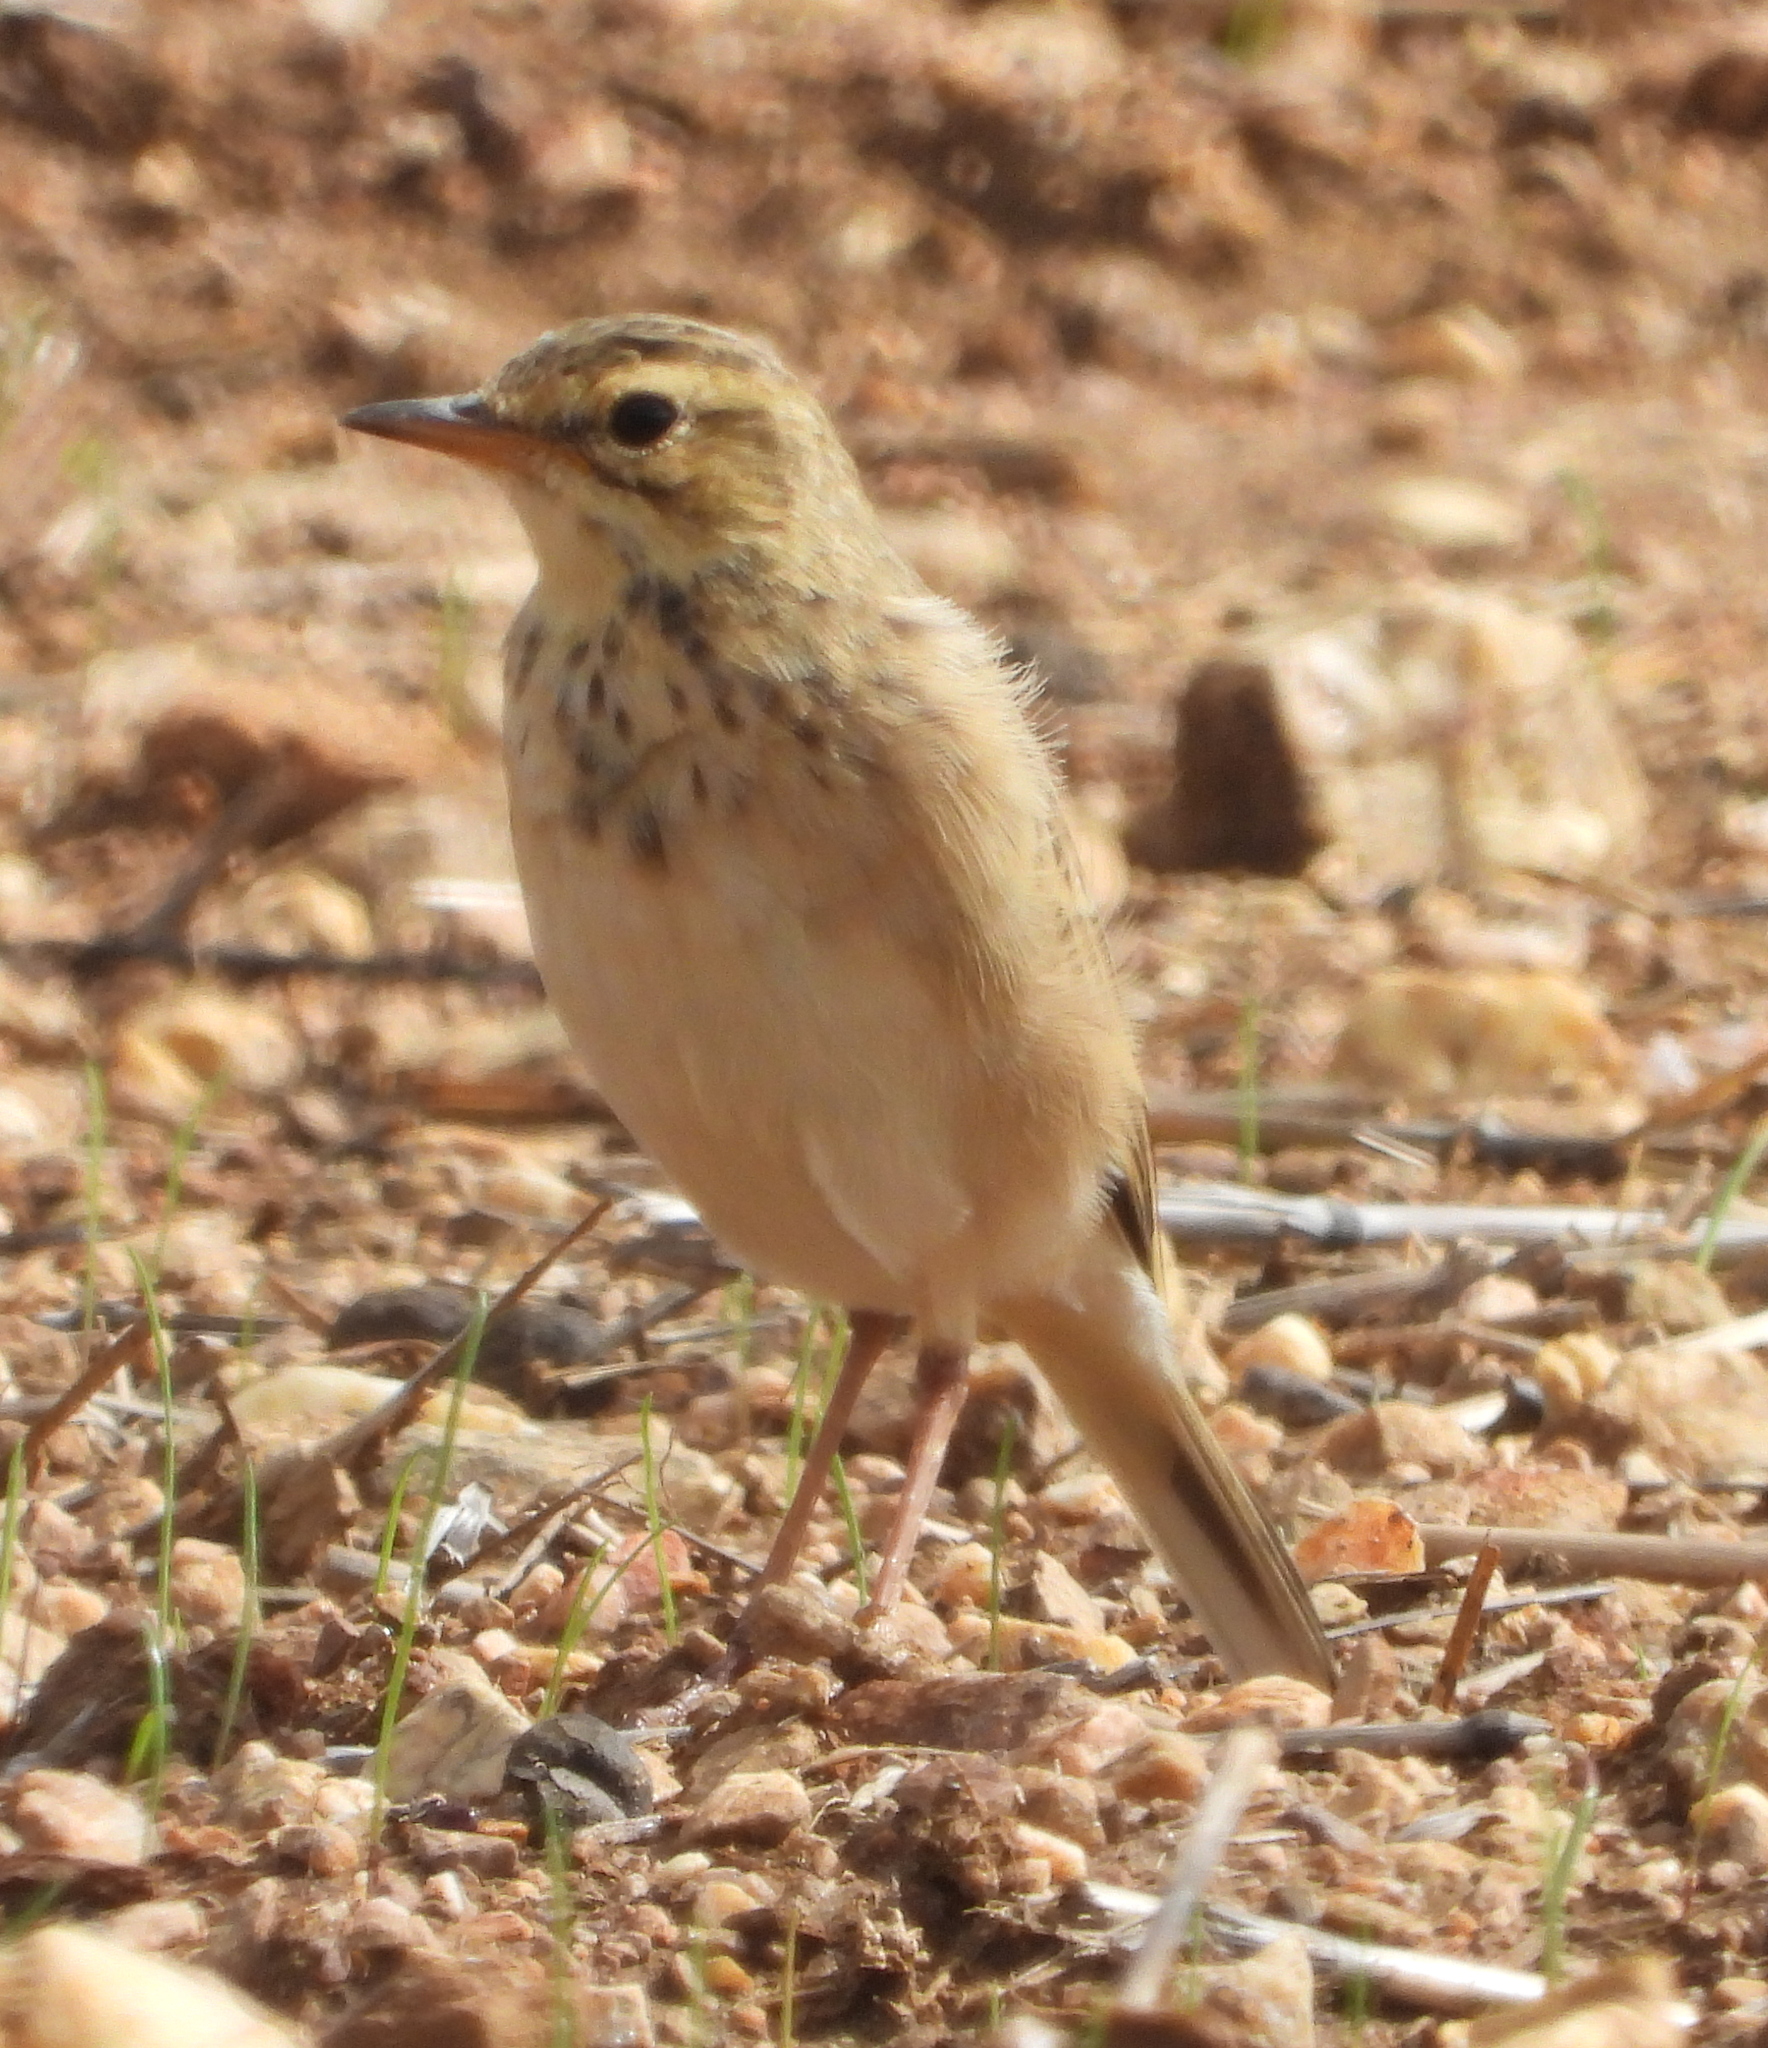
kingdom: Animalia
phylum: Chordata
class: Aves
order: Passeriformes
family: Motacillidae
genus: Anthus
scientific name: Anthus cinnamomeus
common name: African pipit
